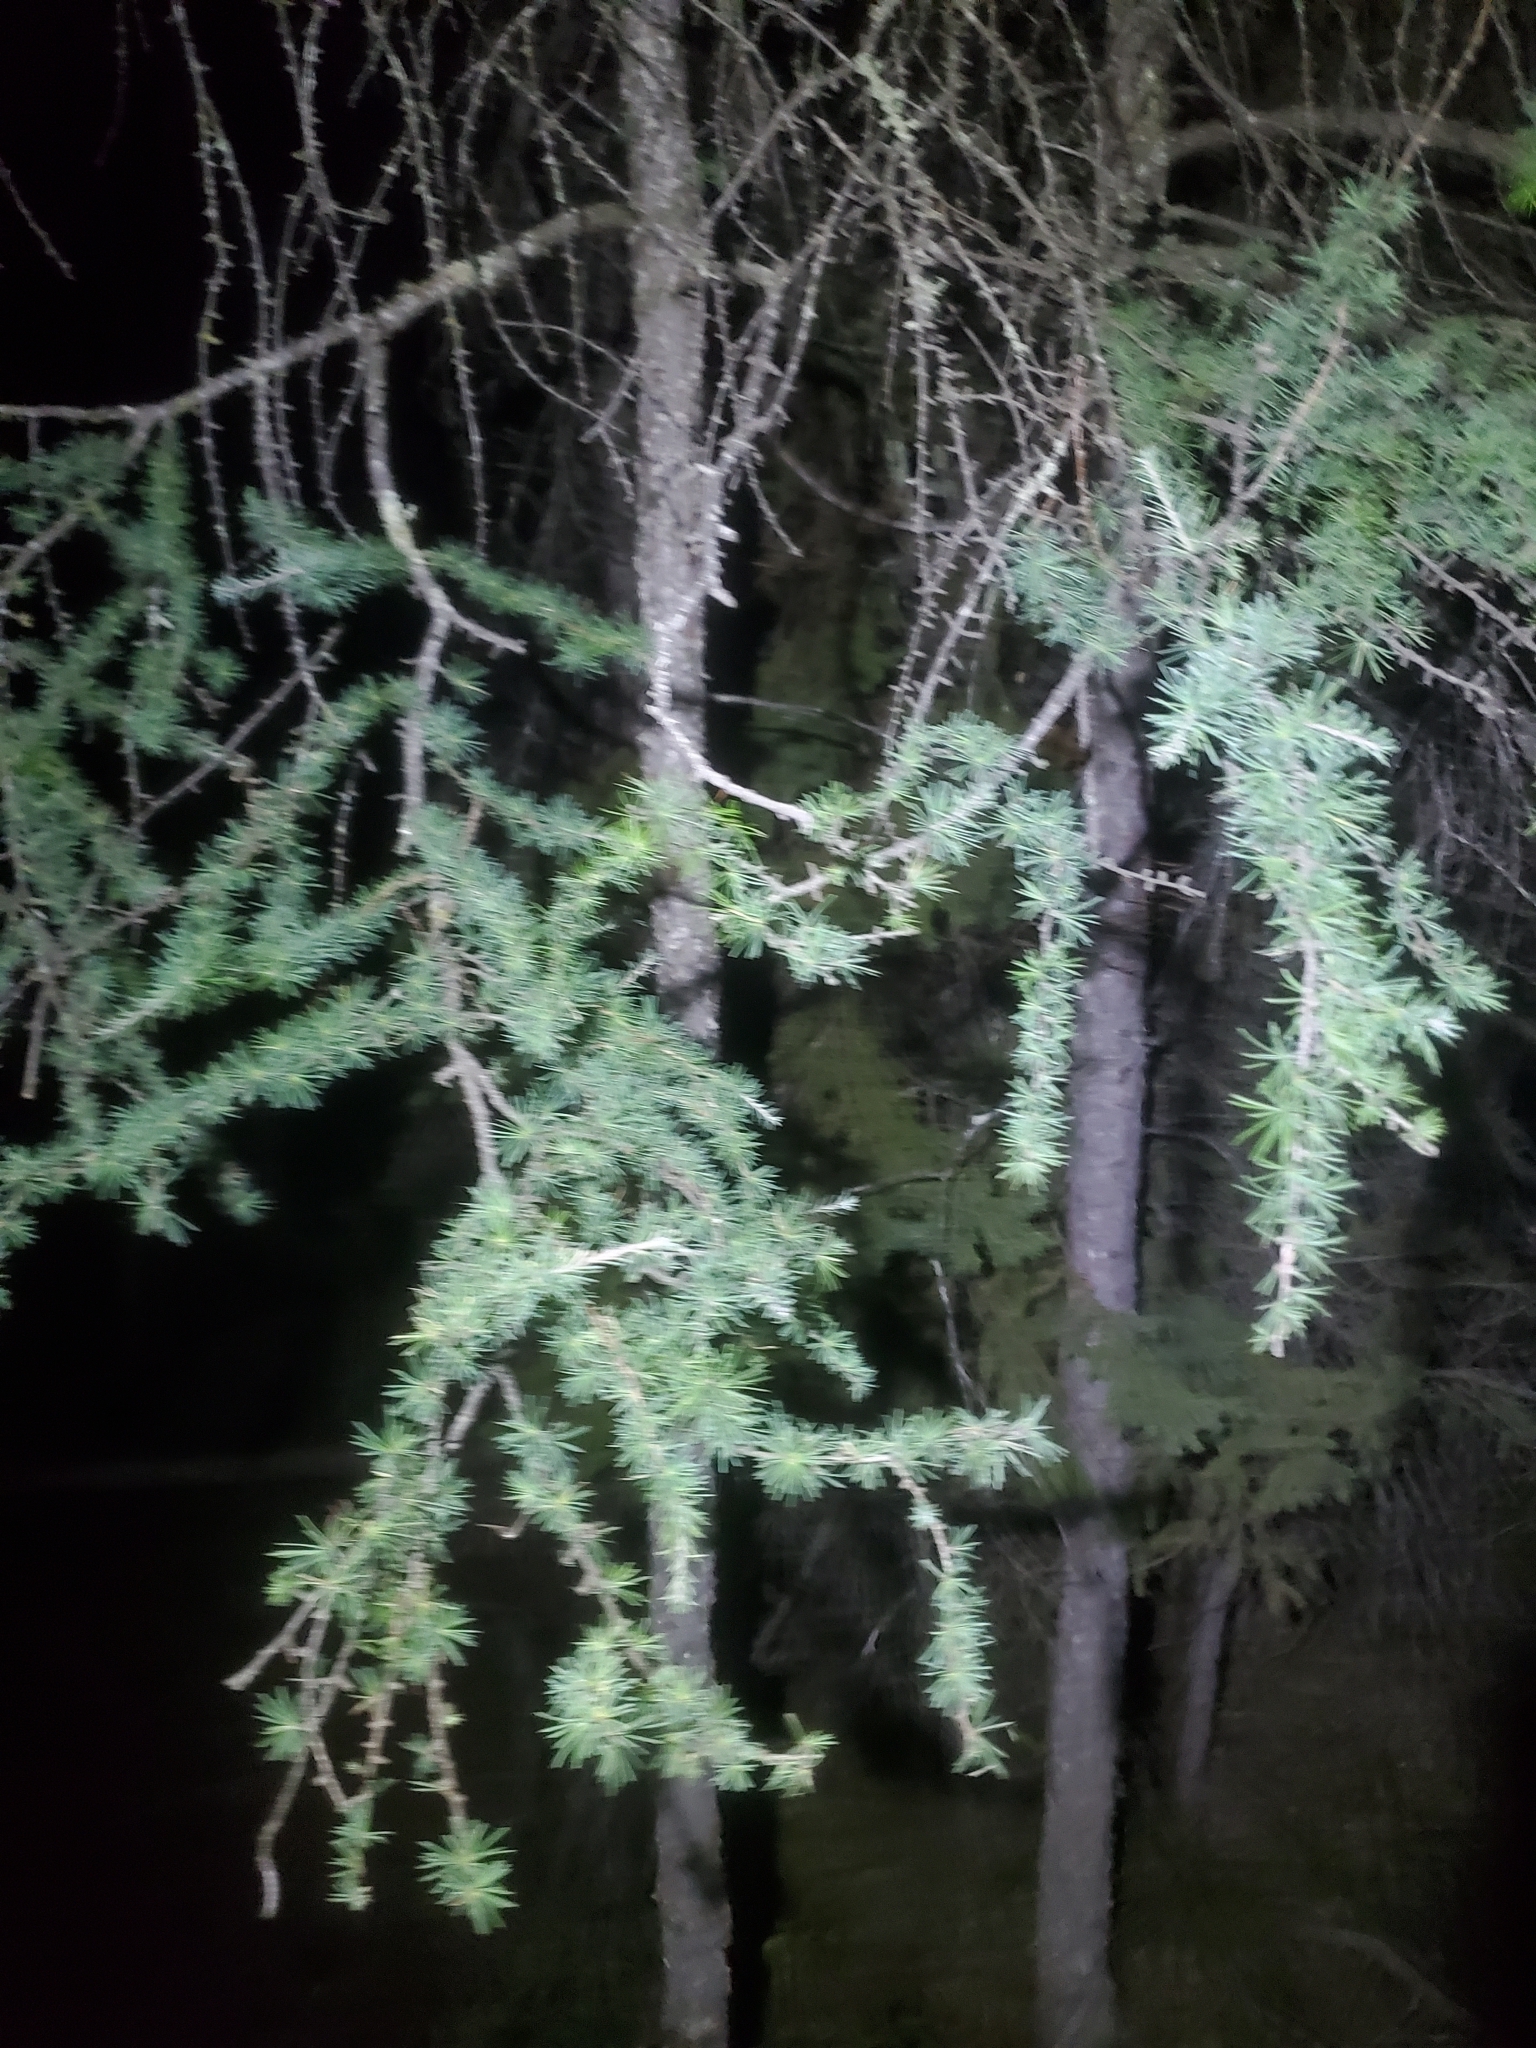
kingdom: Plantae
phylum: Tracheophyta
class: Pinopsida
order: Pinales
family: Pinaceae
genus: Larix
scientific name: Larix laricina
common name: American larch
